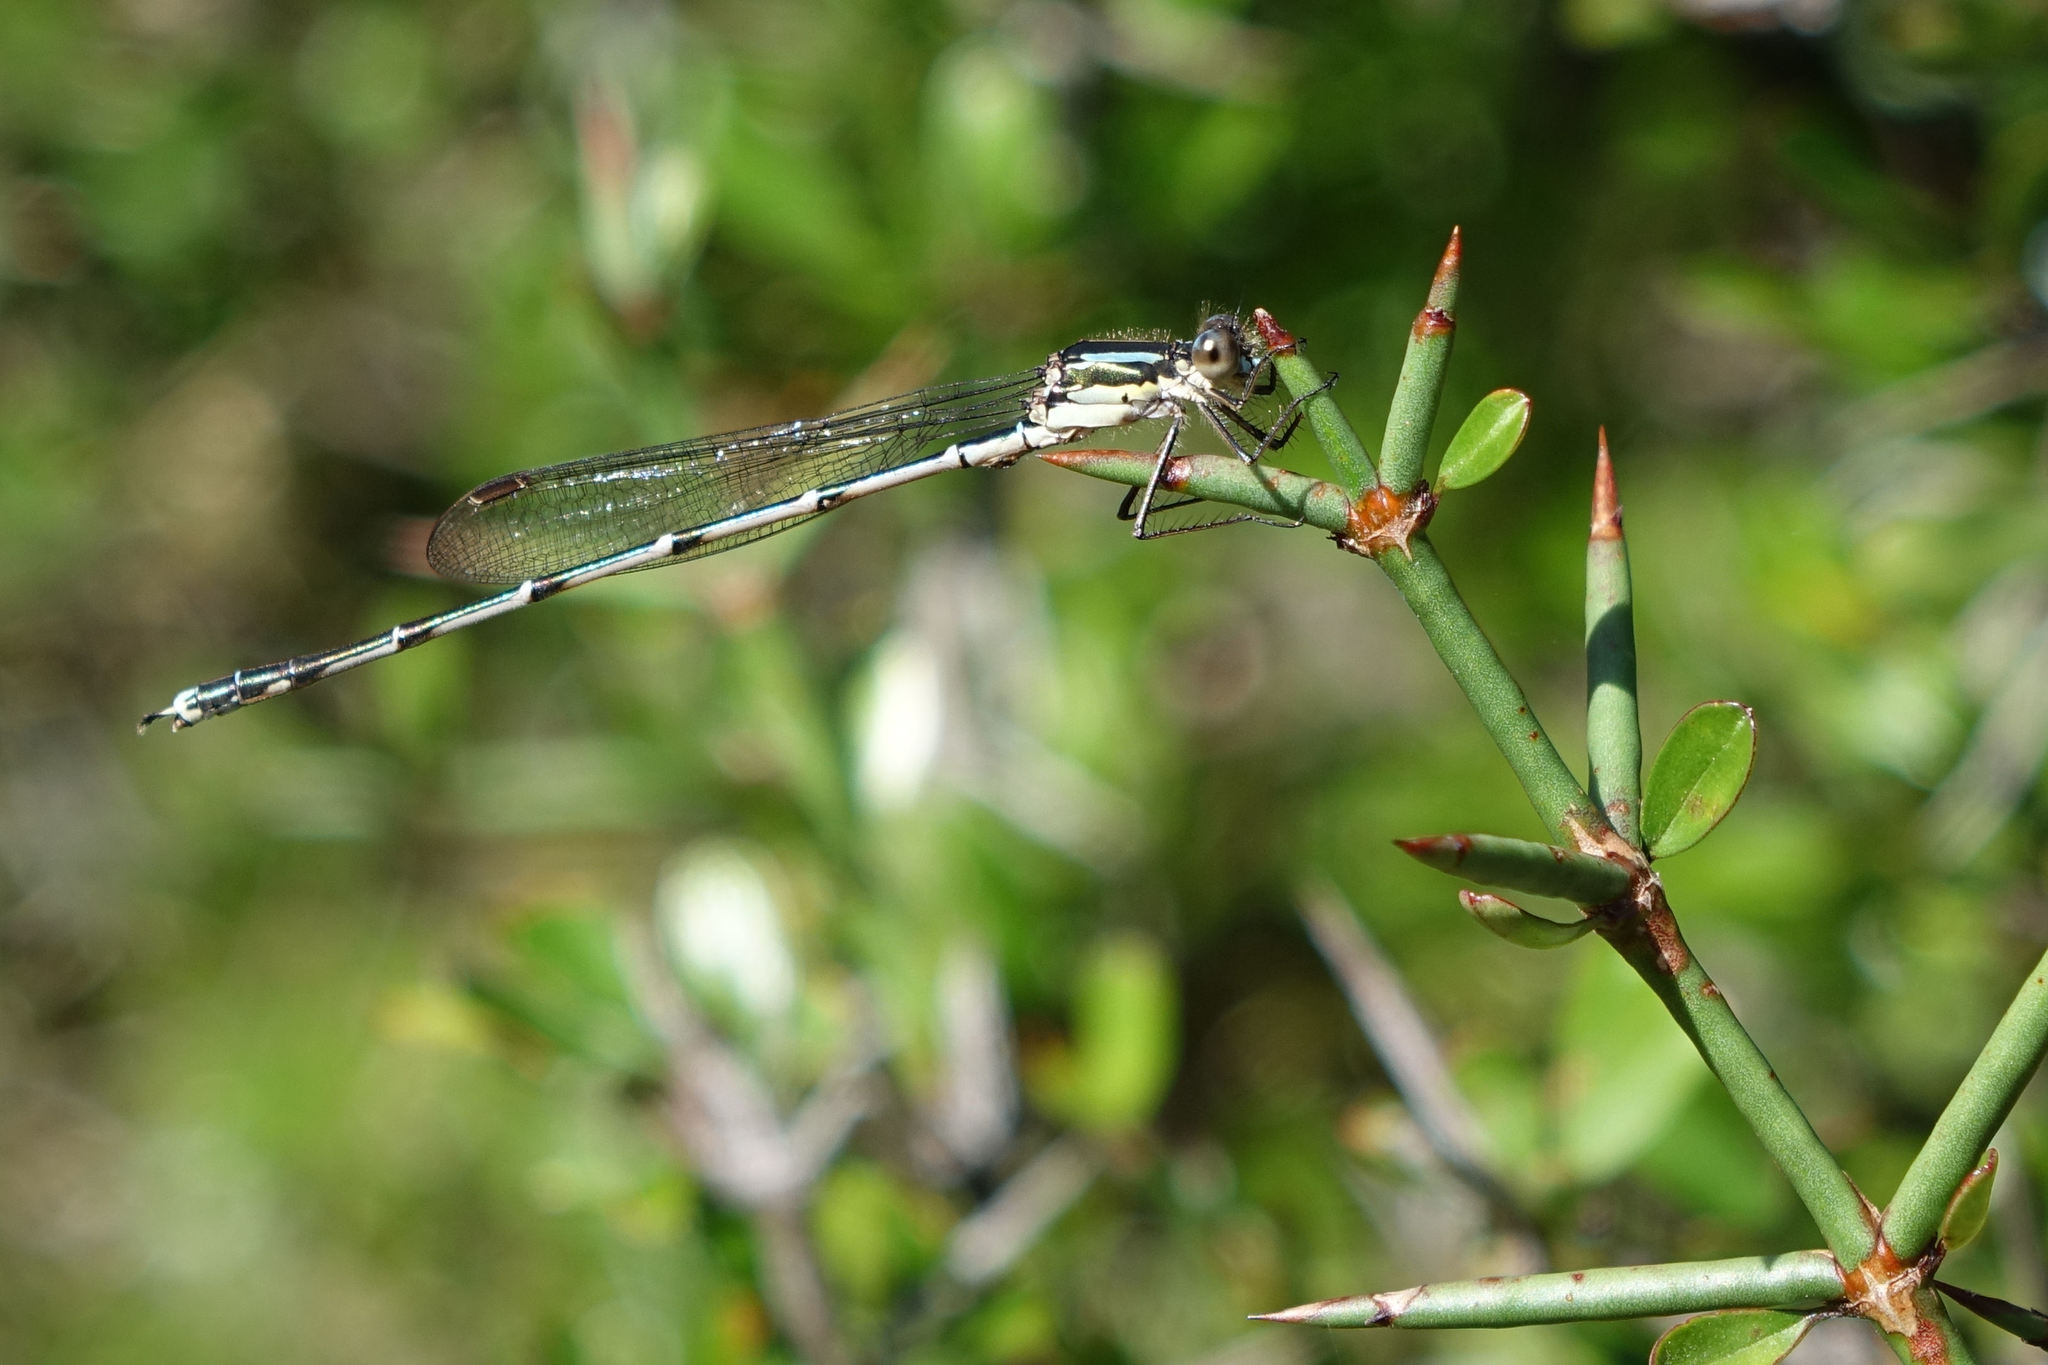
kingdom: Animalia
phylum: Arthropoda
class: Insecta
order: Odonata
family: Lestidae
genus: Austrolestes
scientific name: Austrolestes colensonis
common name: Blue damselfly
